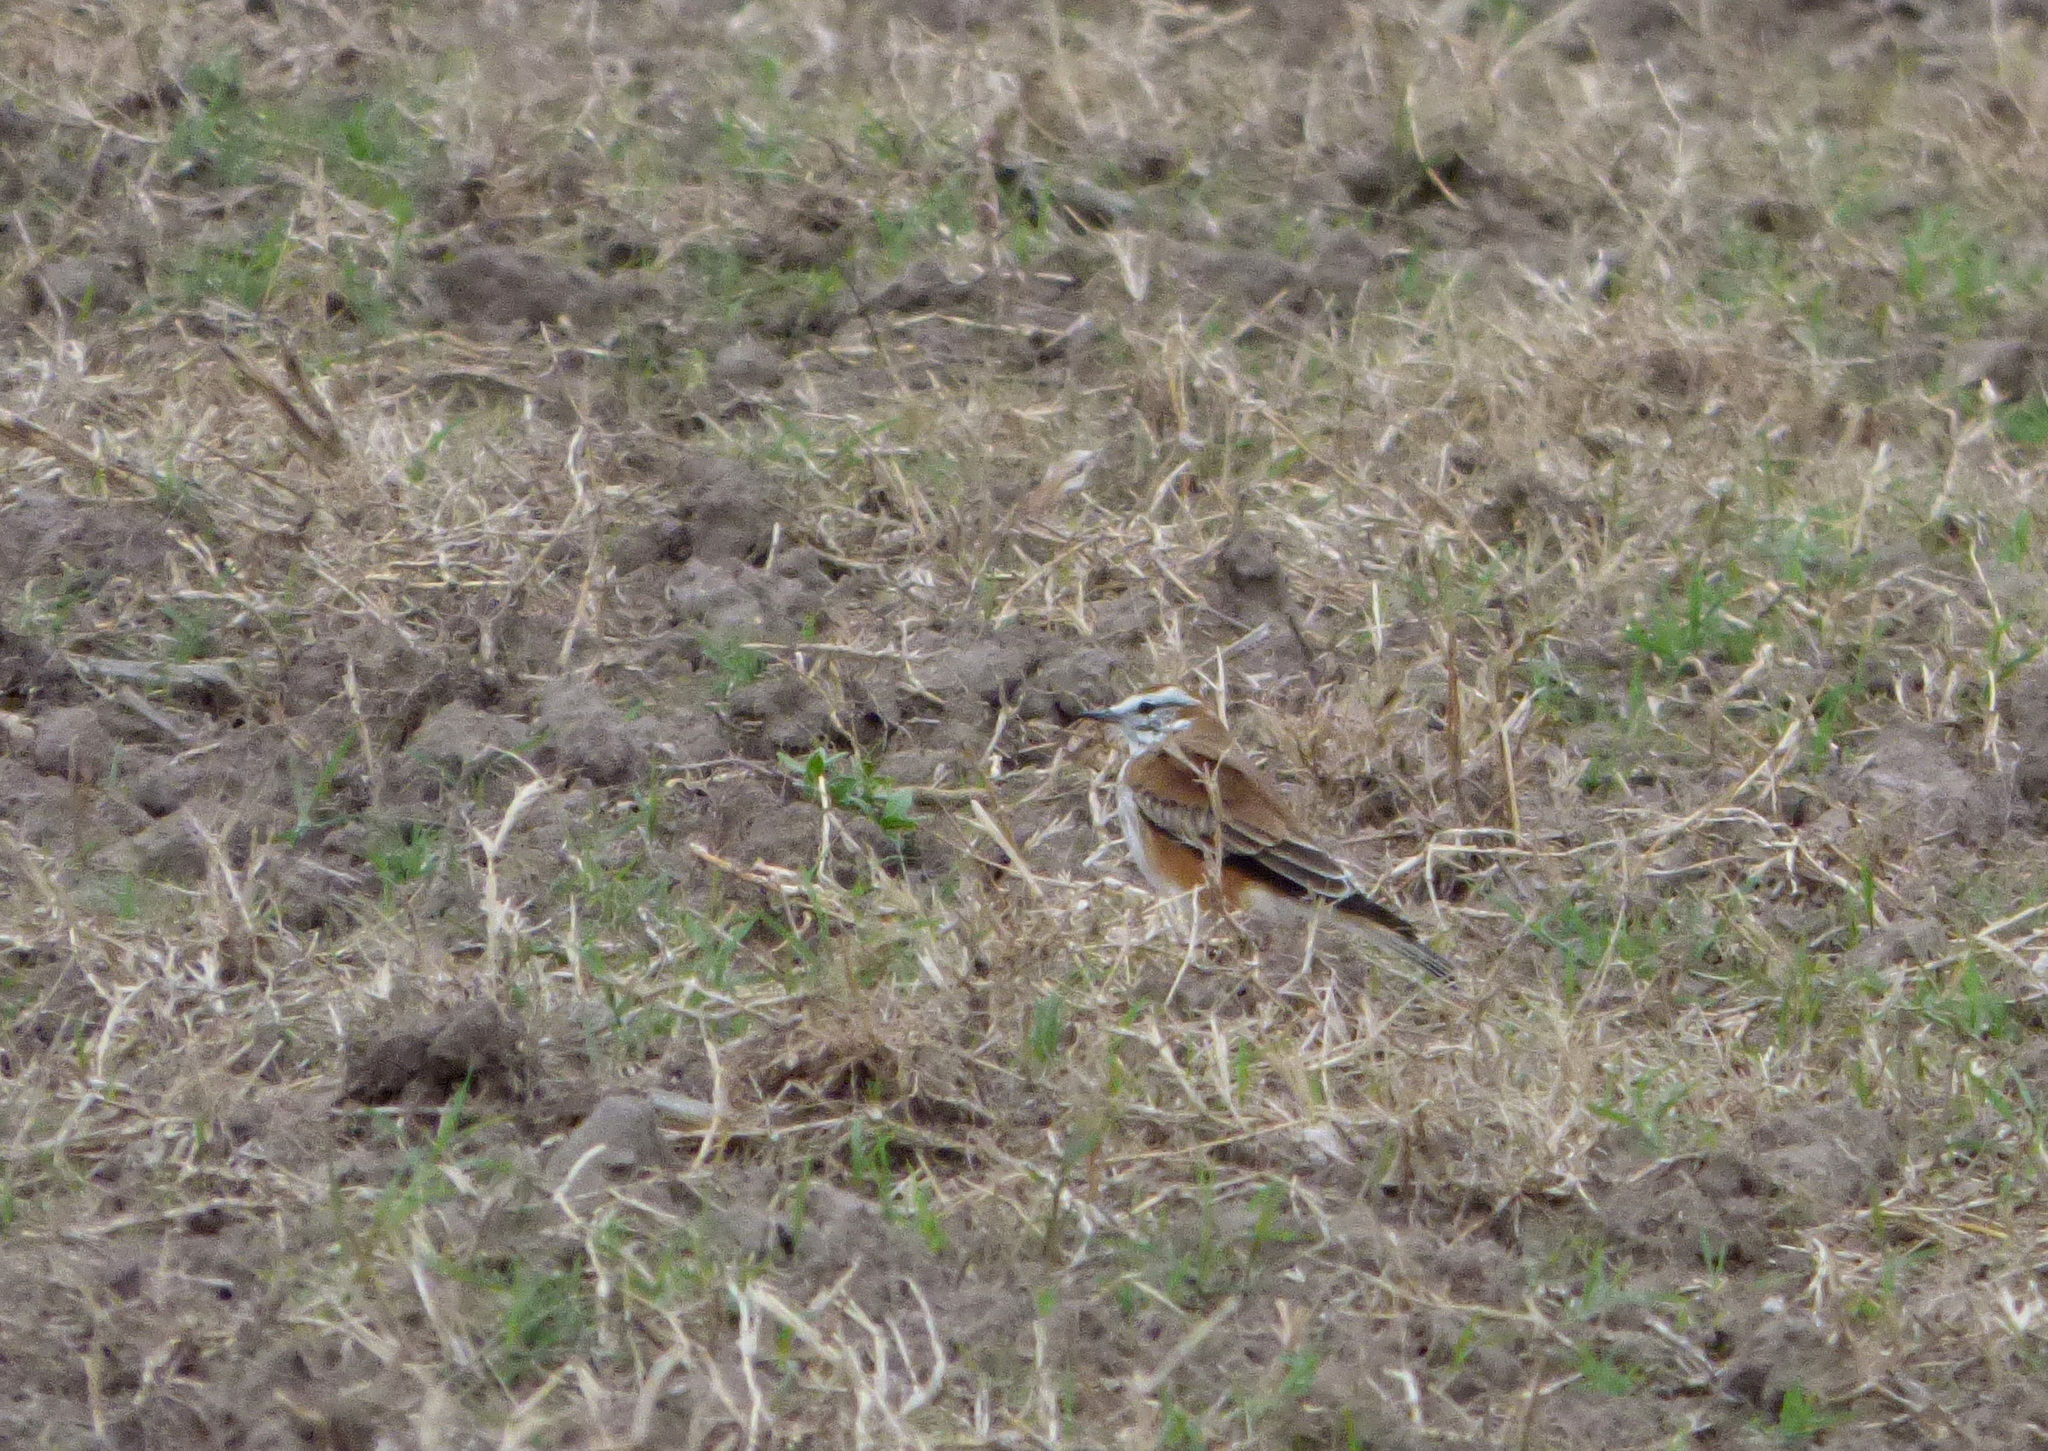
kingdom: Animalia
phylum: Chordata
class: Aves
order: Passeriformes
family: Tyrannidae
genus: Xolmis
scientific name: Xolmis rubetra
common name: Rusty-backed monjita
